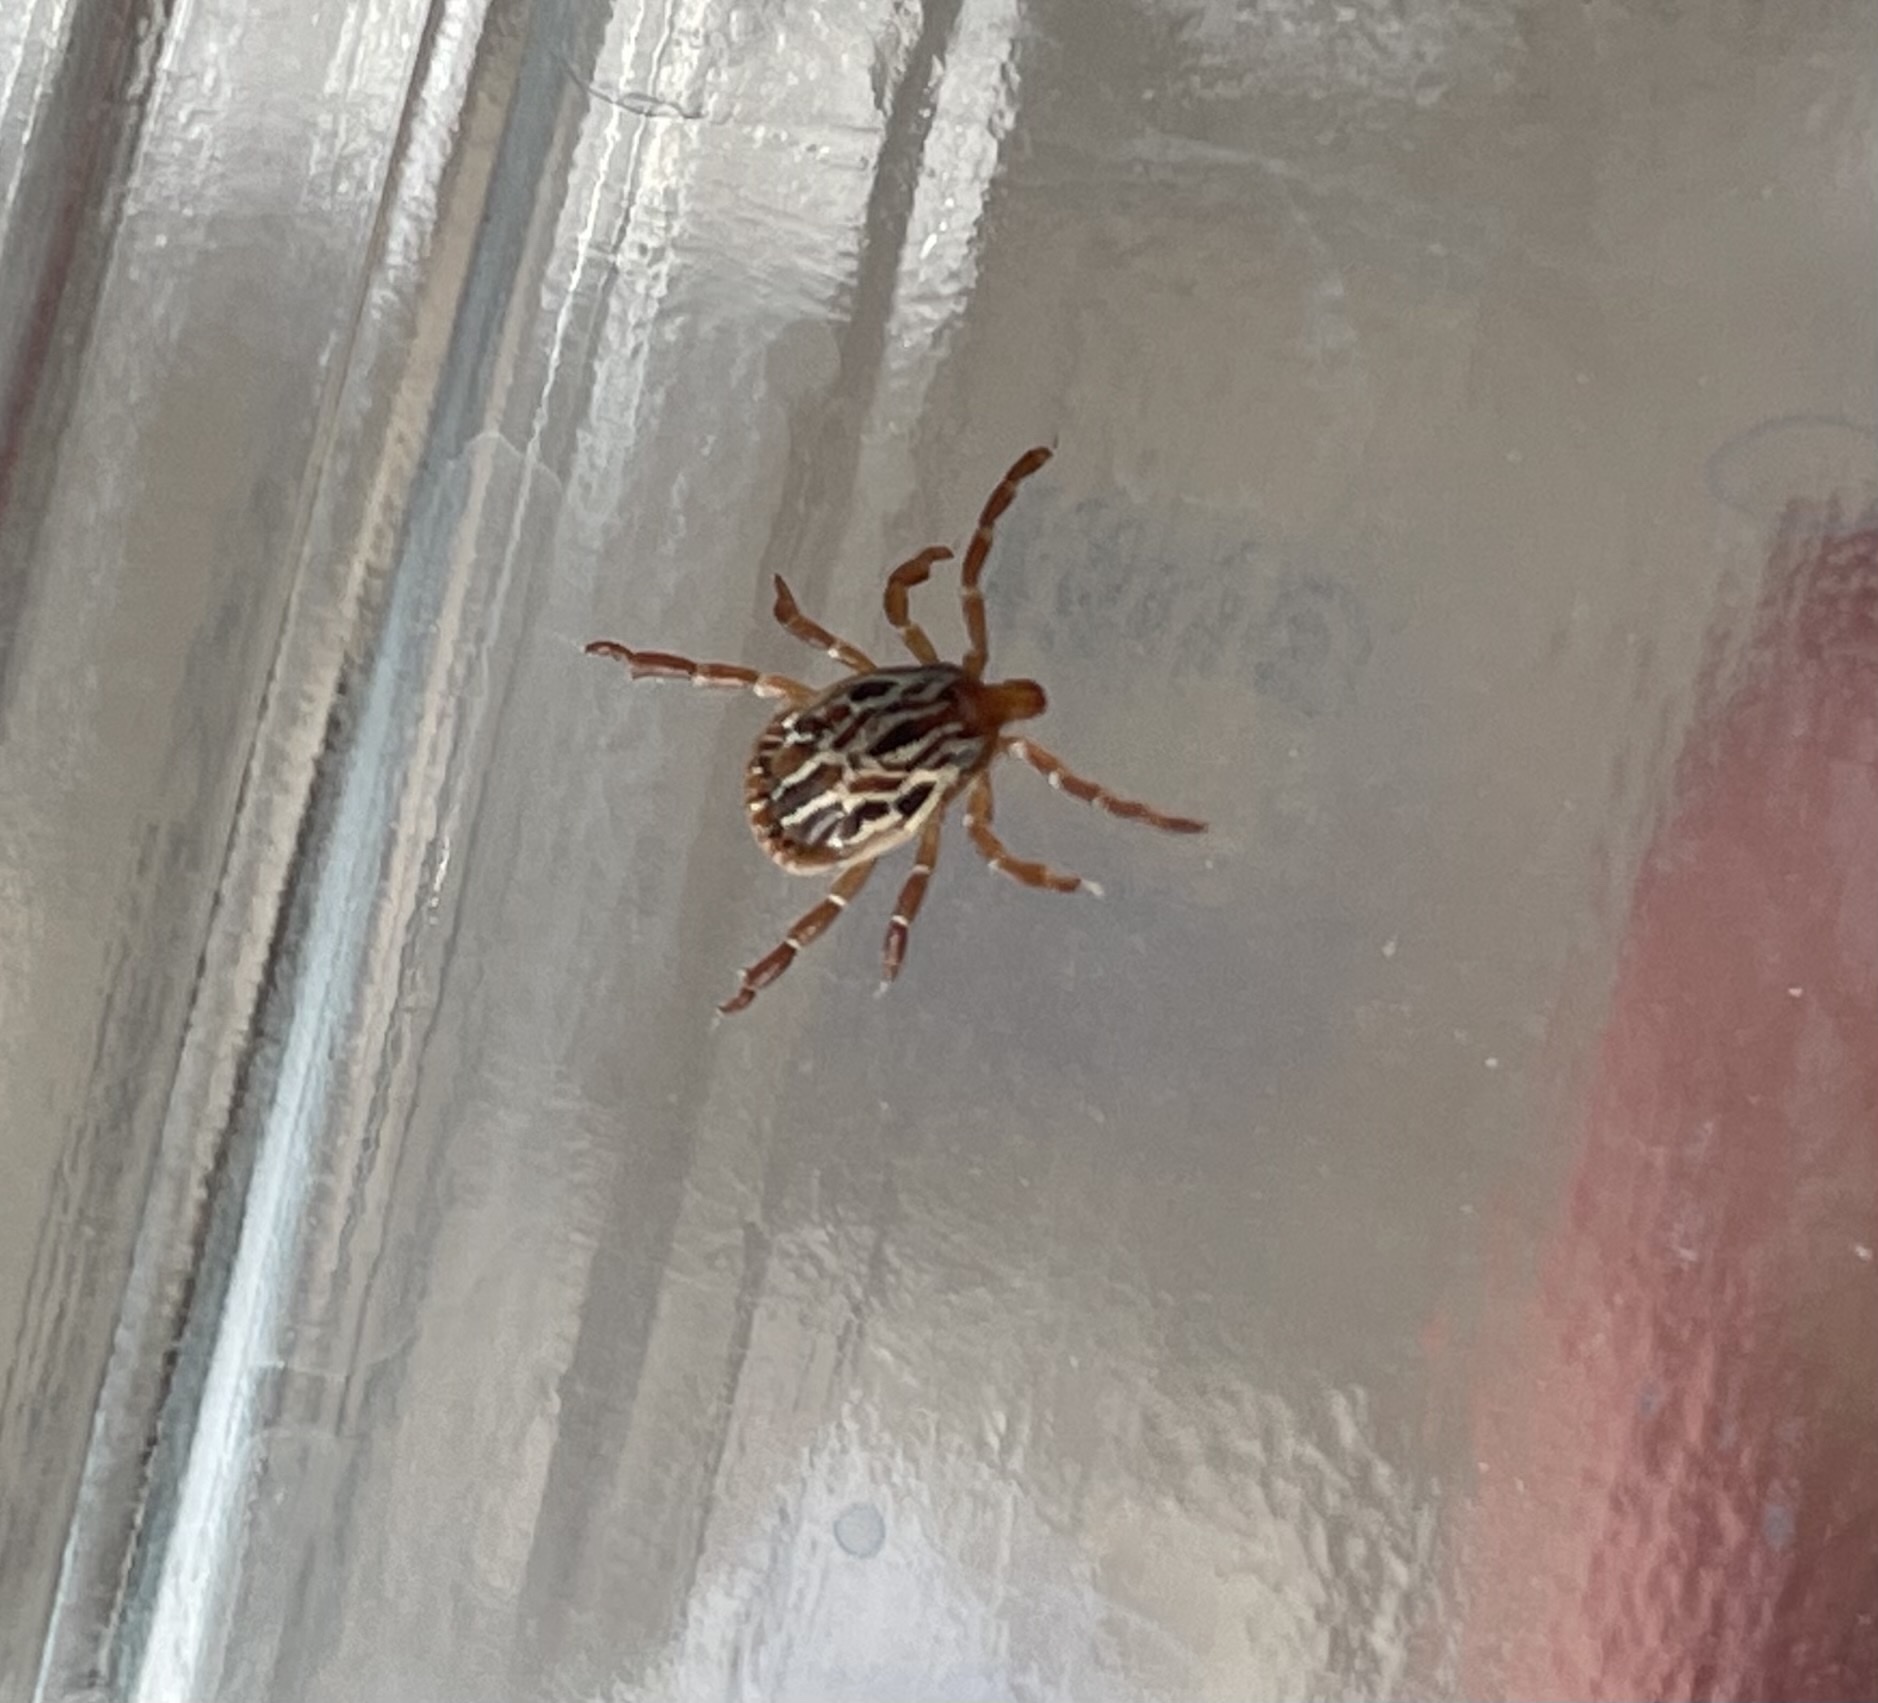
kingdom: Animalia
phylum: Arthropoda
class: Arachnida
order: Ixodida
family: Ixodidae
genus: Amblyomma
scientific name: Amblyomma maculatum
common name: Gulf coast tick
